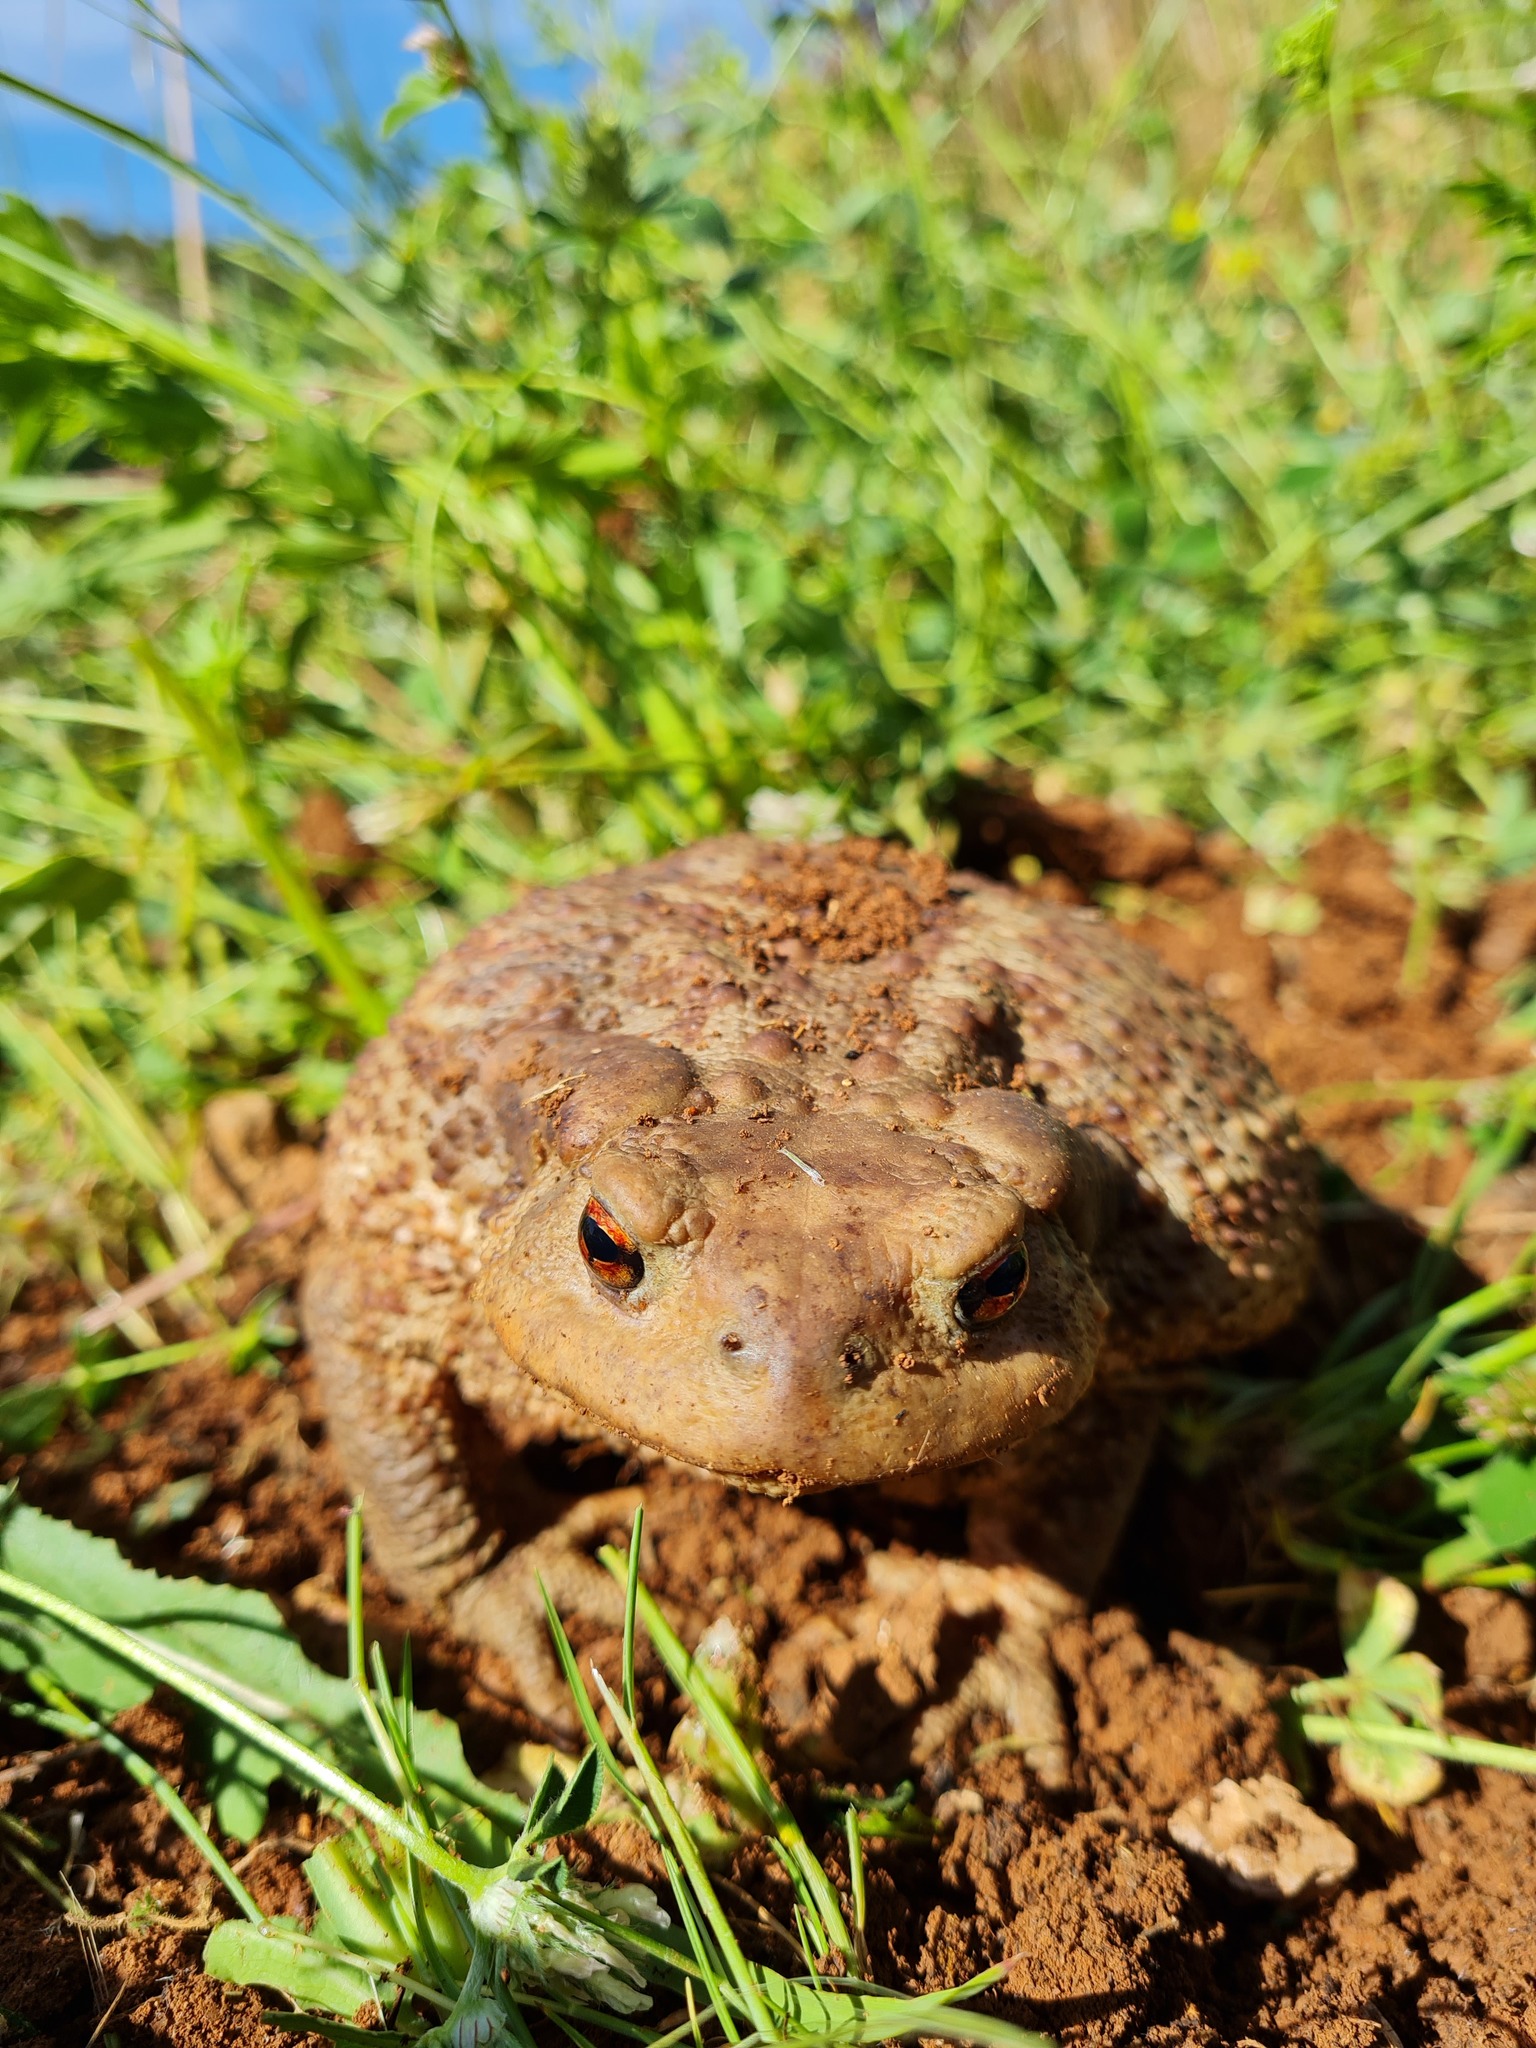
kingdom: Animalia
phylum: Chordata
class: Amphibia
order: Anura
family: Bufonidae
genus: Bufo
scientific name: Bufo bufo
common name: Common toad
